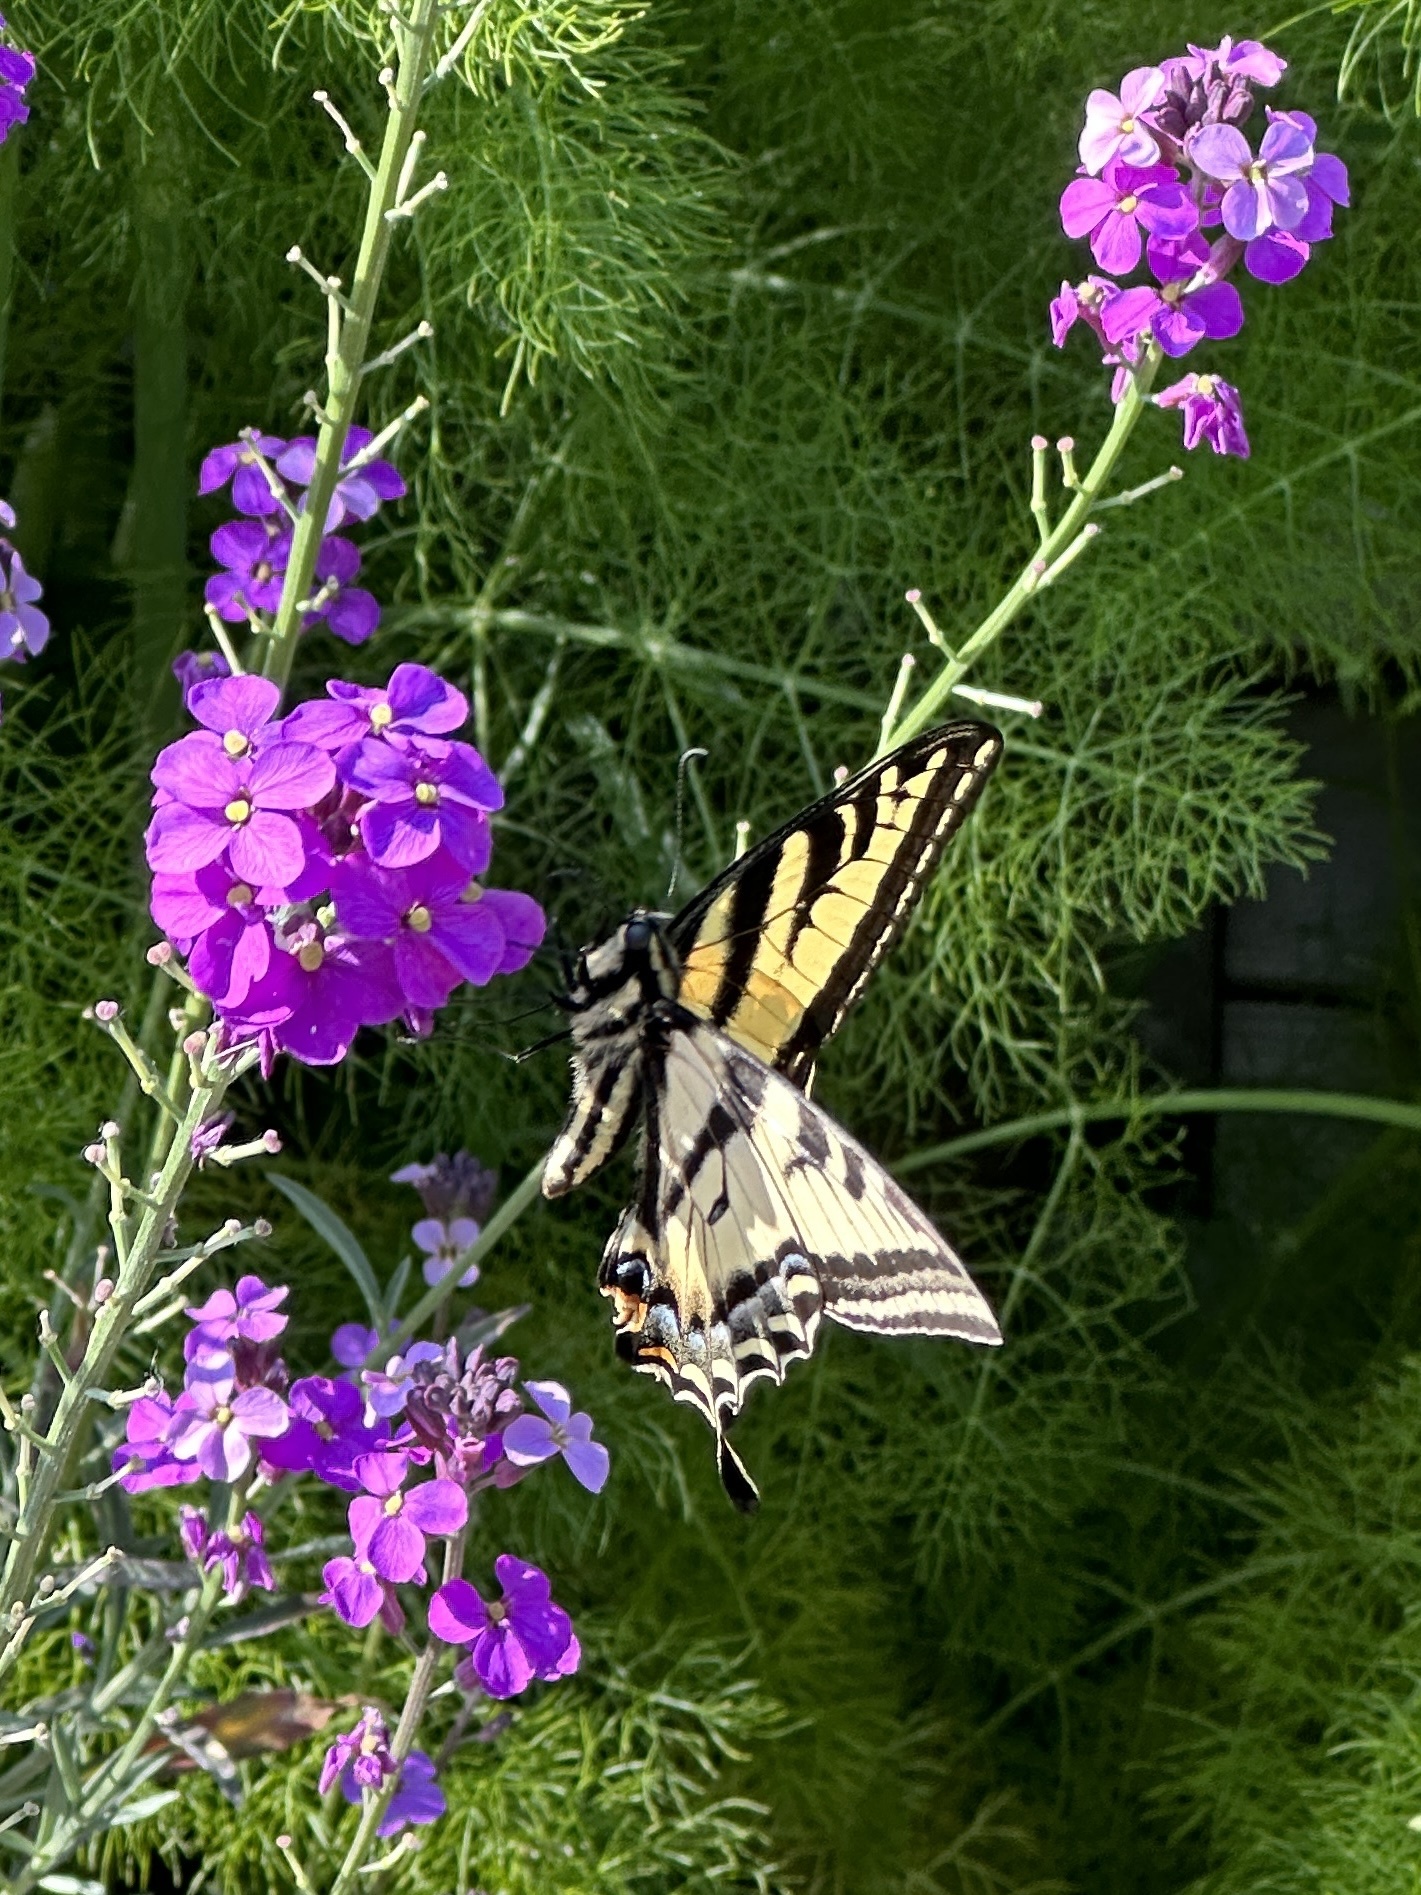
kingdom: Animalia
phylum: Arthropoda
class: Insecta
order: Lepidoptera
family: Papilionidae
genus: Papilio
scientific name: Papilio rutulus
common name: Western tiger swallowtail
